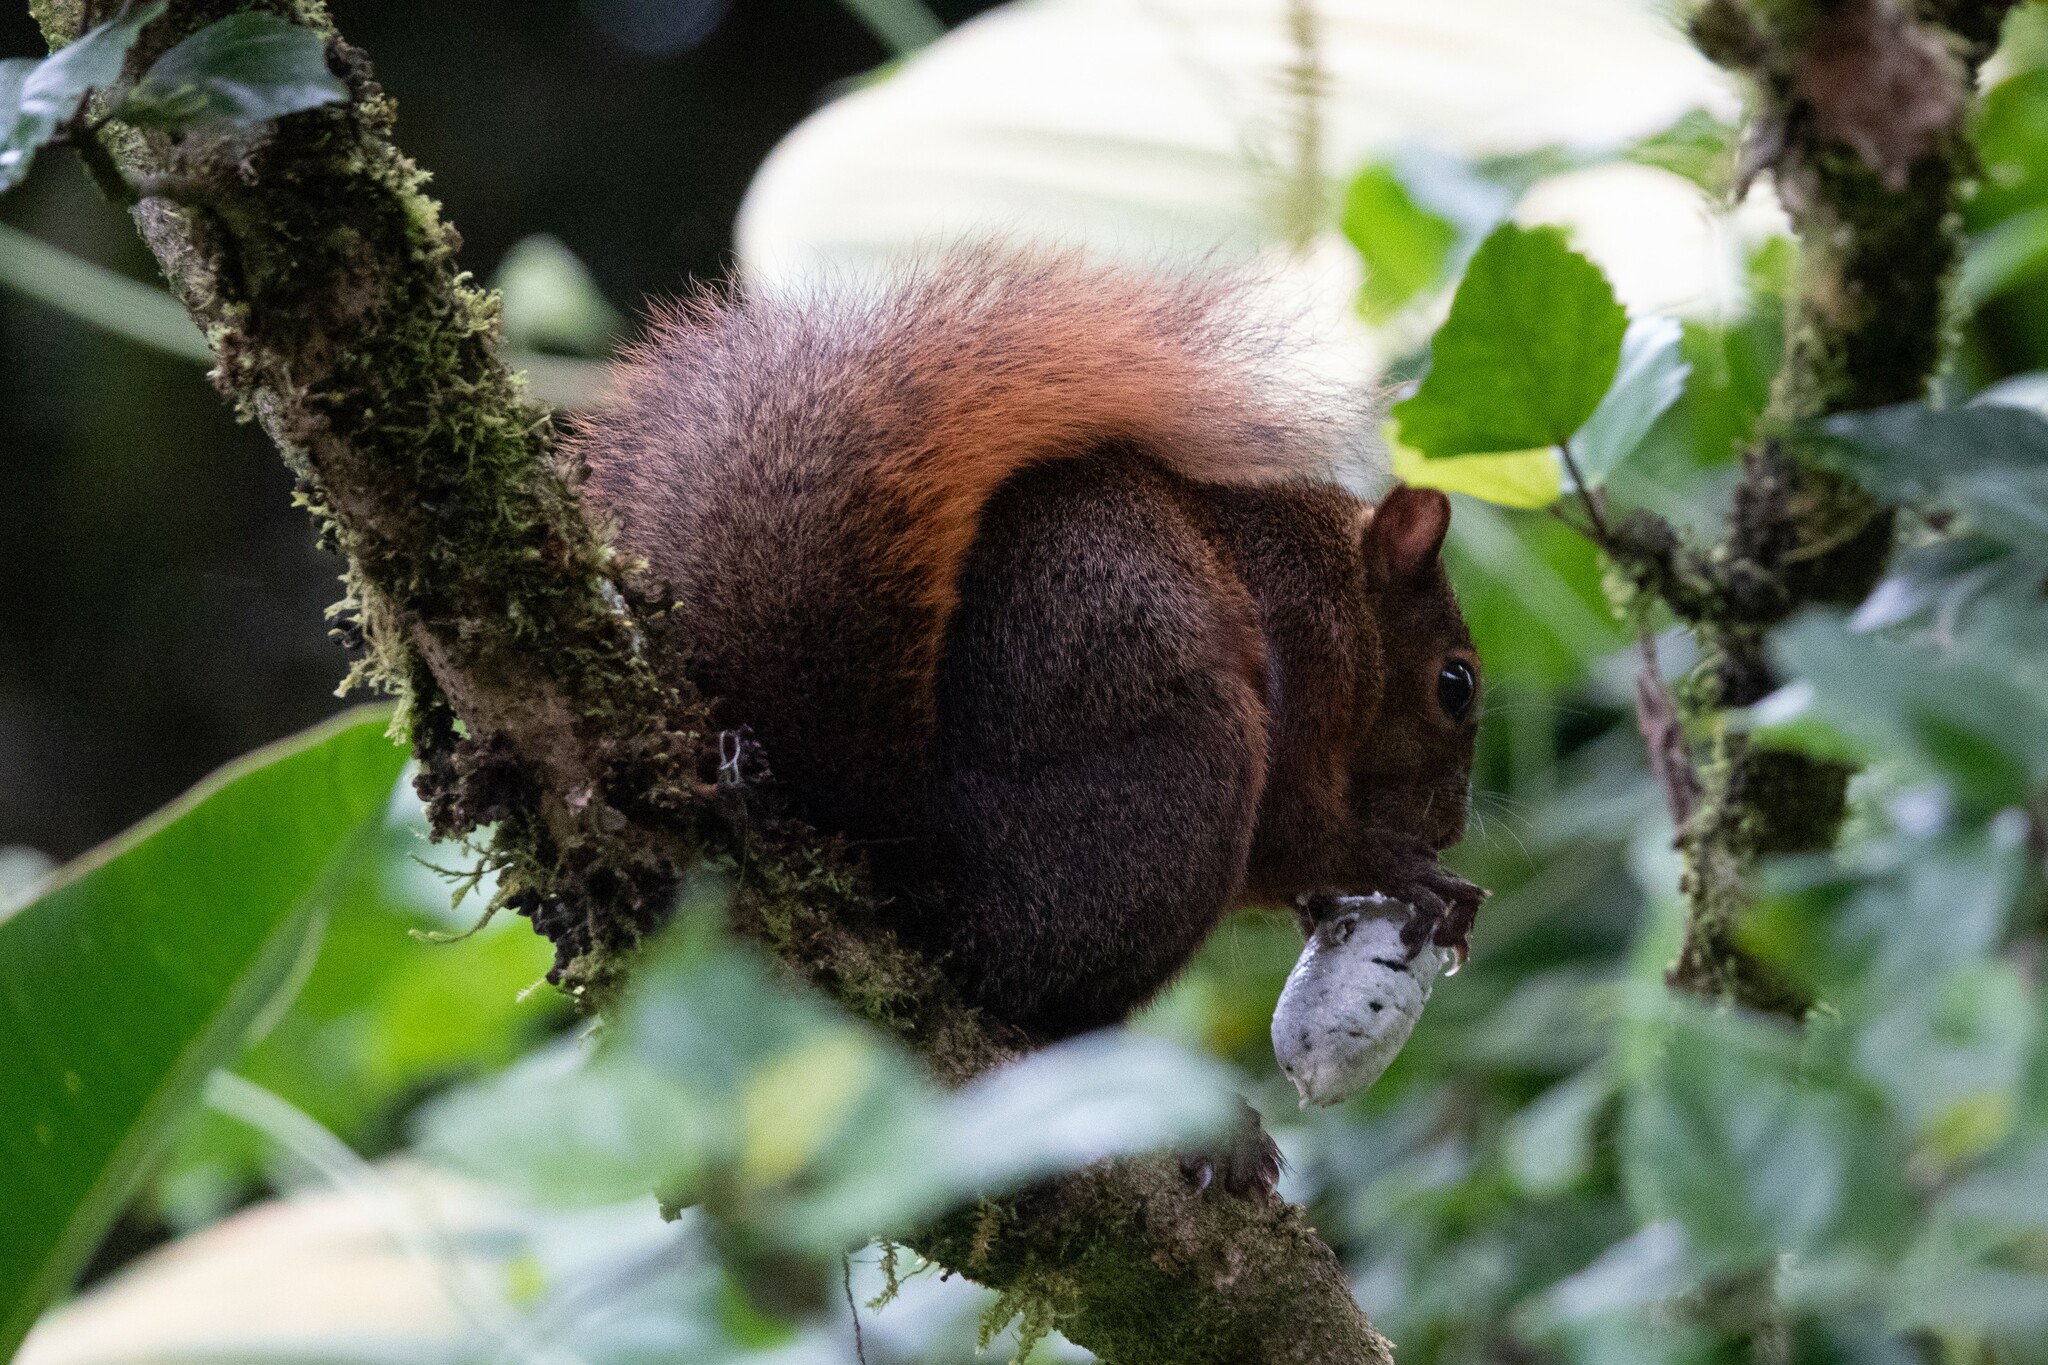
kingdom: Animalia
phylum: Chordata
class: Mammalia
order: Rodentia
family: Sciuridae
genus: Sciurus
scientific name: Sciurus granatensis
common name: Red-tailed squirrel
